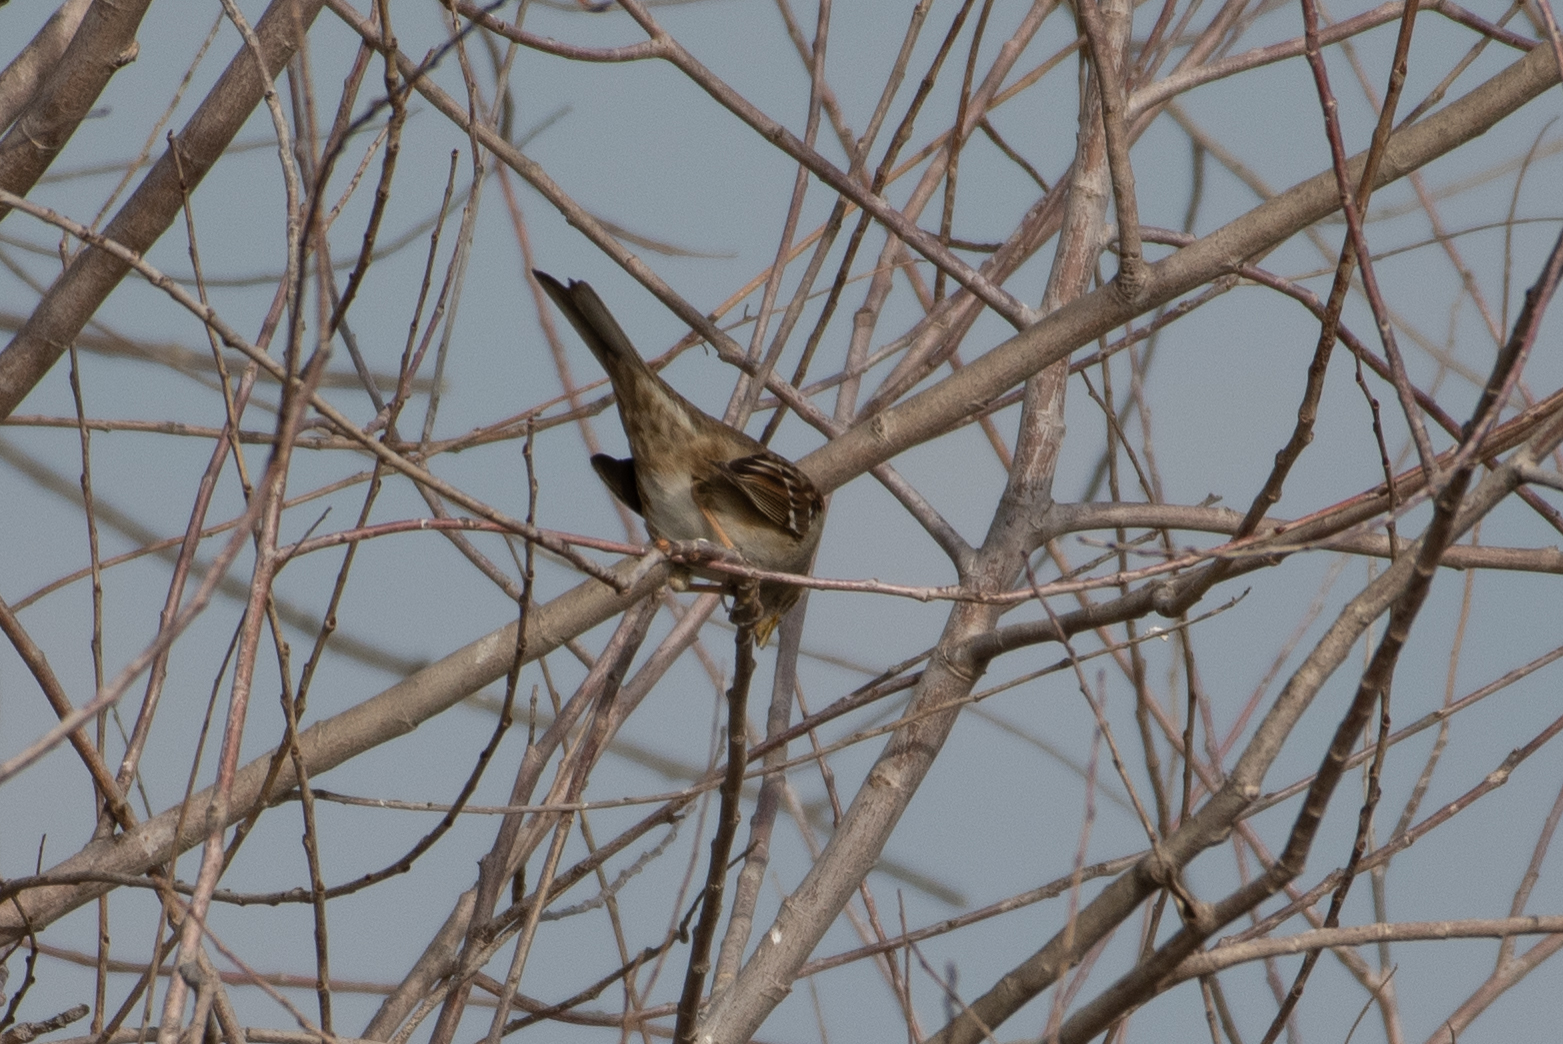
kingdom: Animalia
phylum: Chordata
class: Aves
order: Passeriformes
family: Passerellidae
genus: Zonotrichia
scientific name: Zonotrichia
